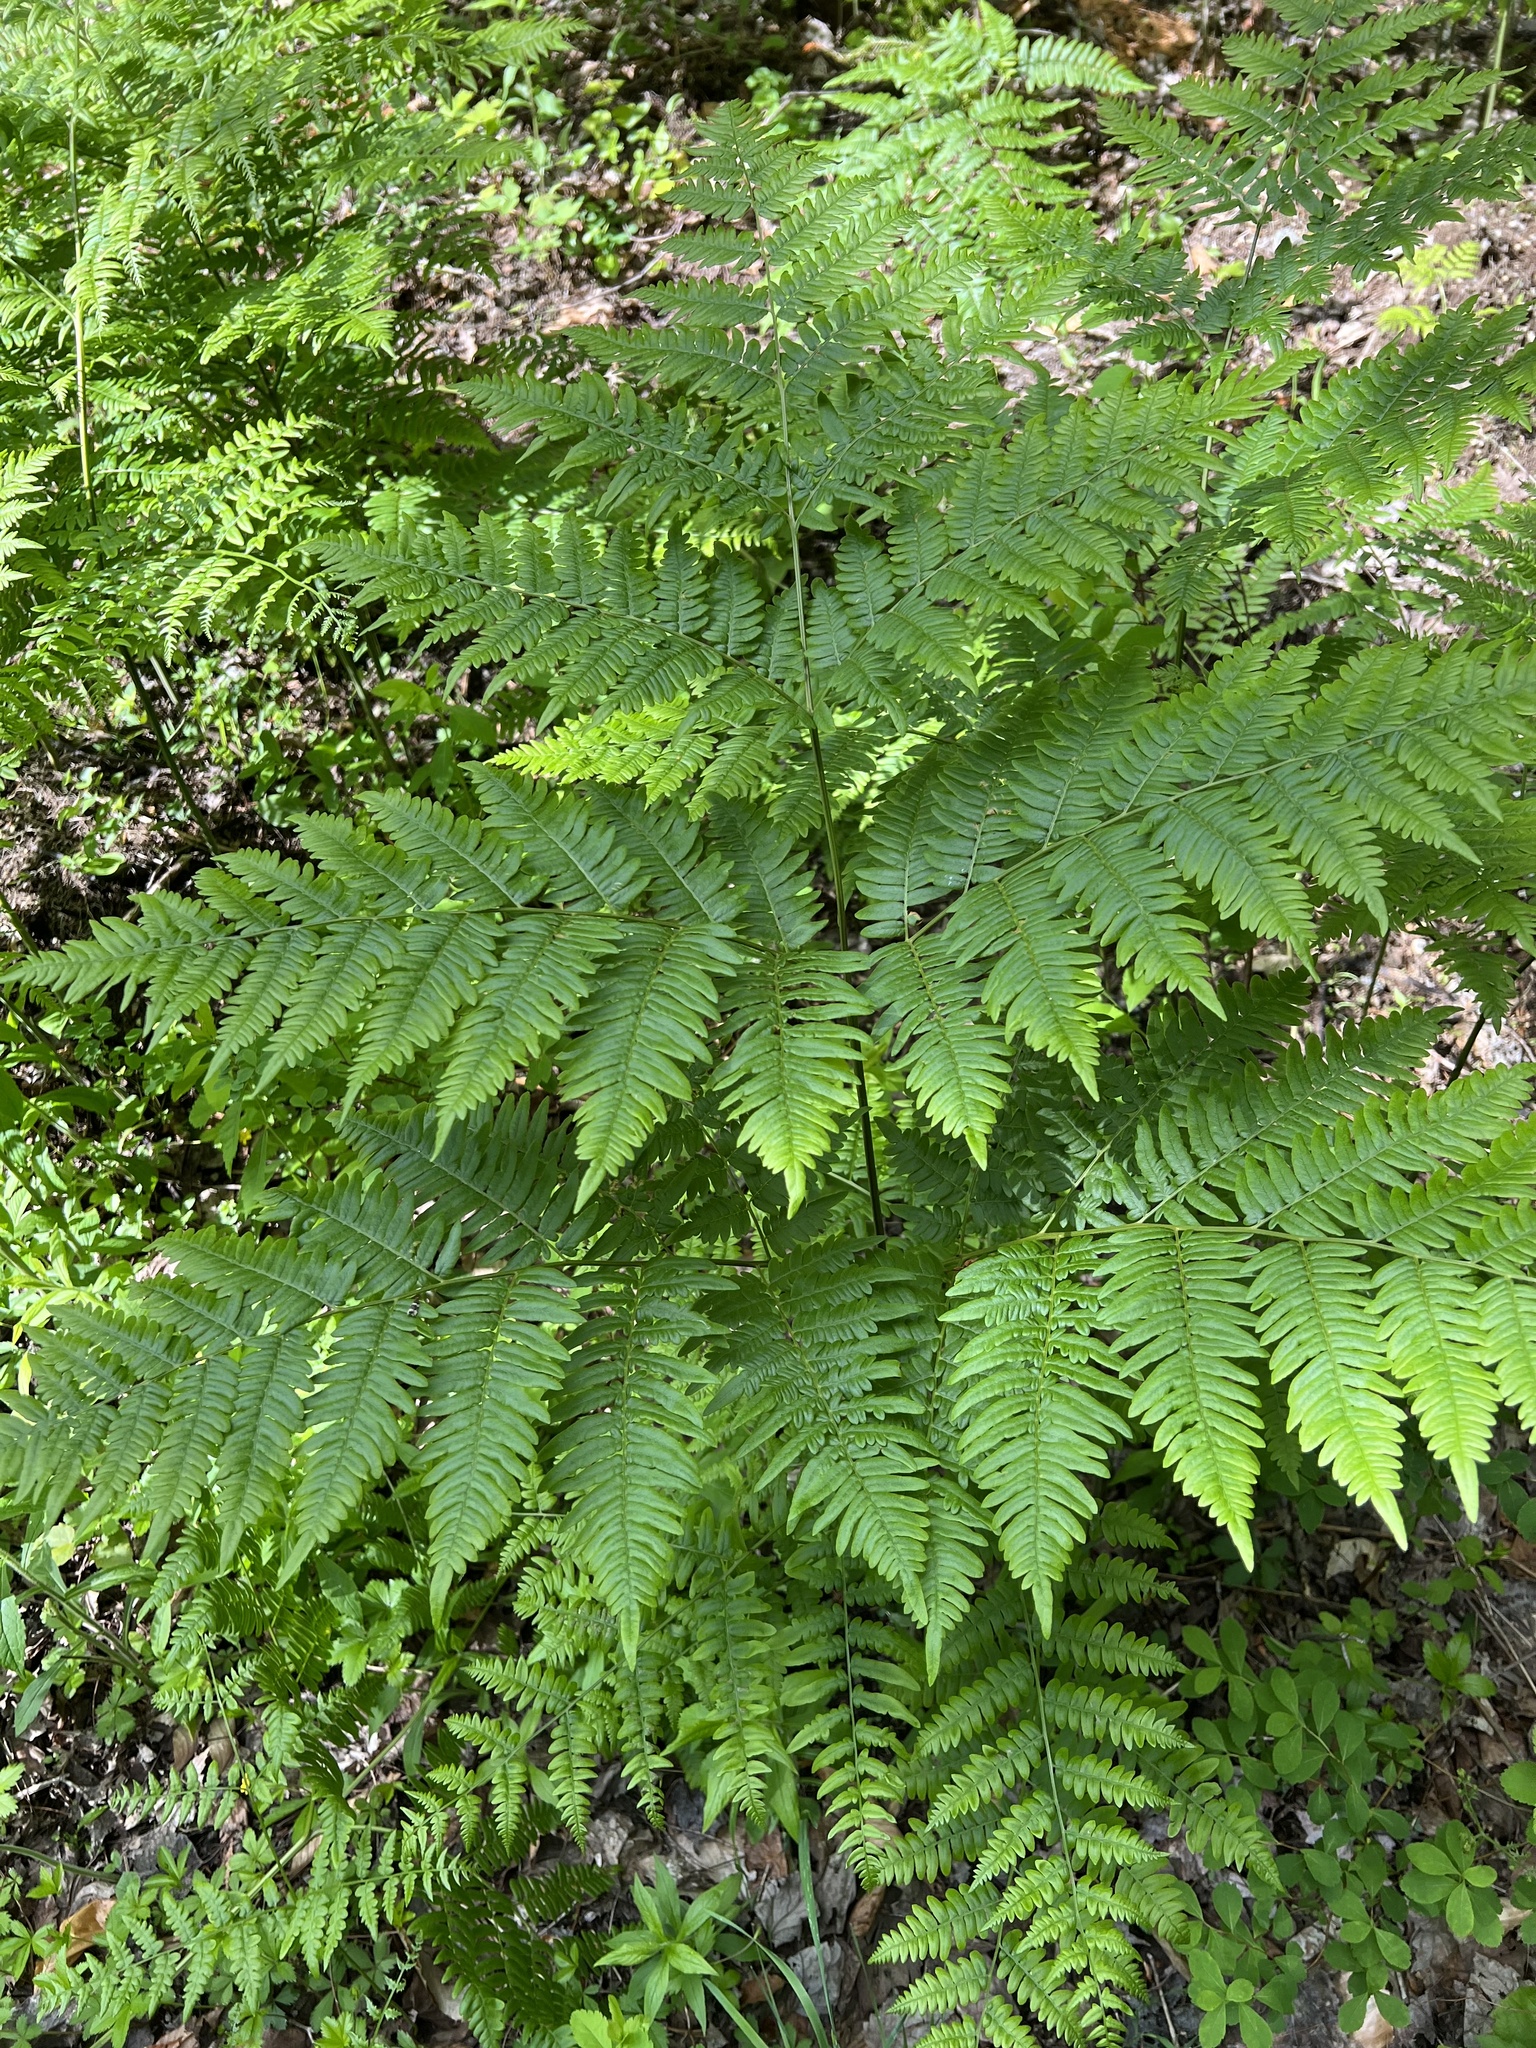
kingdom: Plantae
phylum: Tracheophyta
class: Polypodiopsida
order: Polypodiales
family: Dennstaedtiaceae
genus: Pteridium
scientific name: Pteridium aquilinum
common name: Bracken
